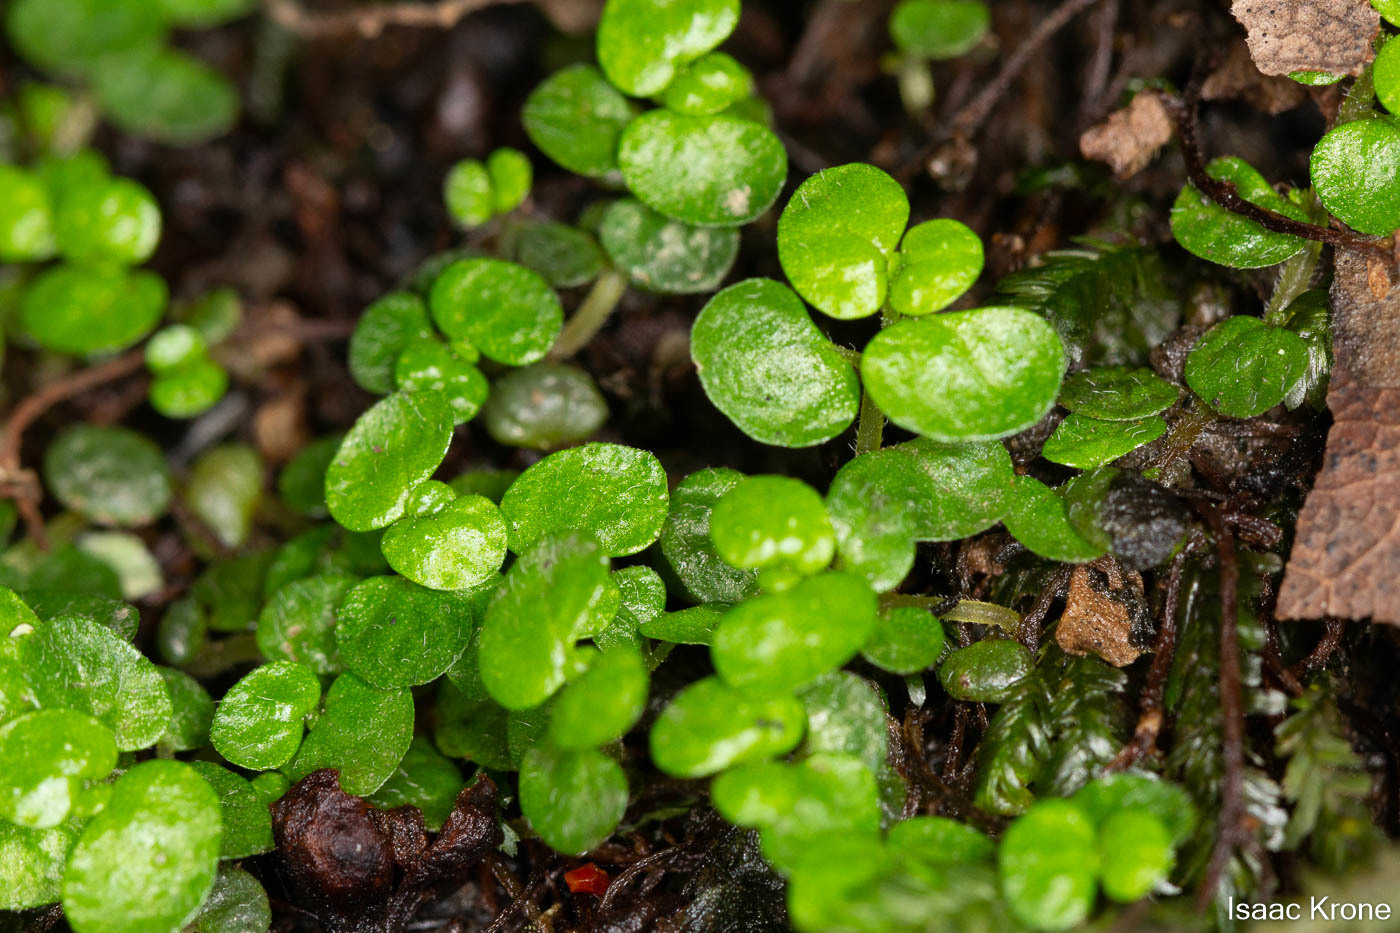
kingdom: Plantae
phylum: Tracheophyta
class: Magnoliopsida
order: Rosales
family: Urticaceae
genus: Soleirolia
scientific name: Soleirolia soleirolii
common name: Mind-your-own-business
